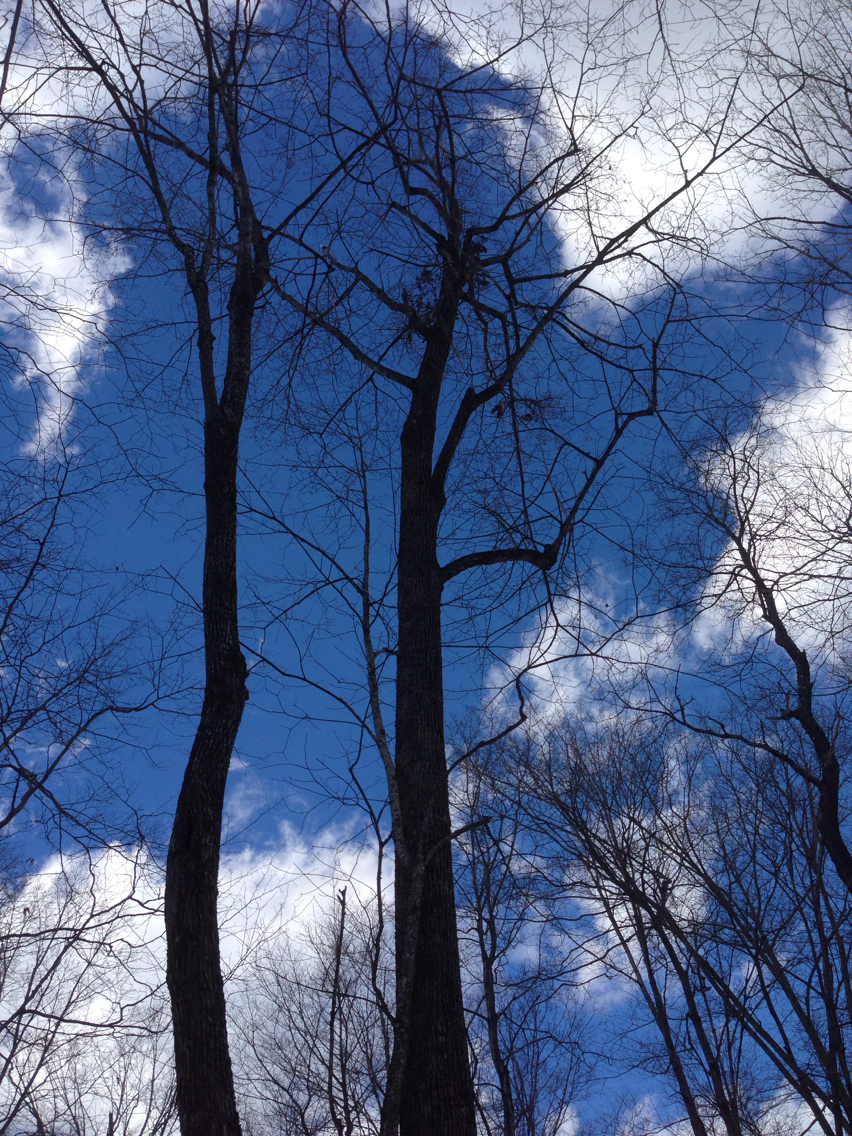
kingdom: Plantae
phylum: Tracheophyta
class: Magnoliopsida
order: Fagales
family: Fagaceae
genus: Quercus
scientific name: Quercus rubra
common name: Red oak
